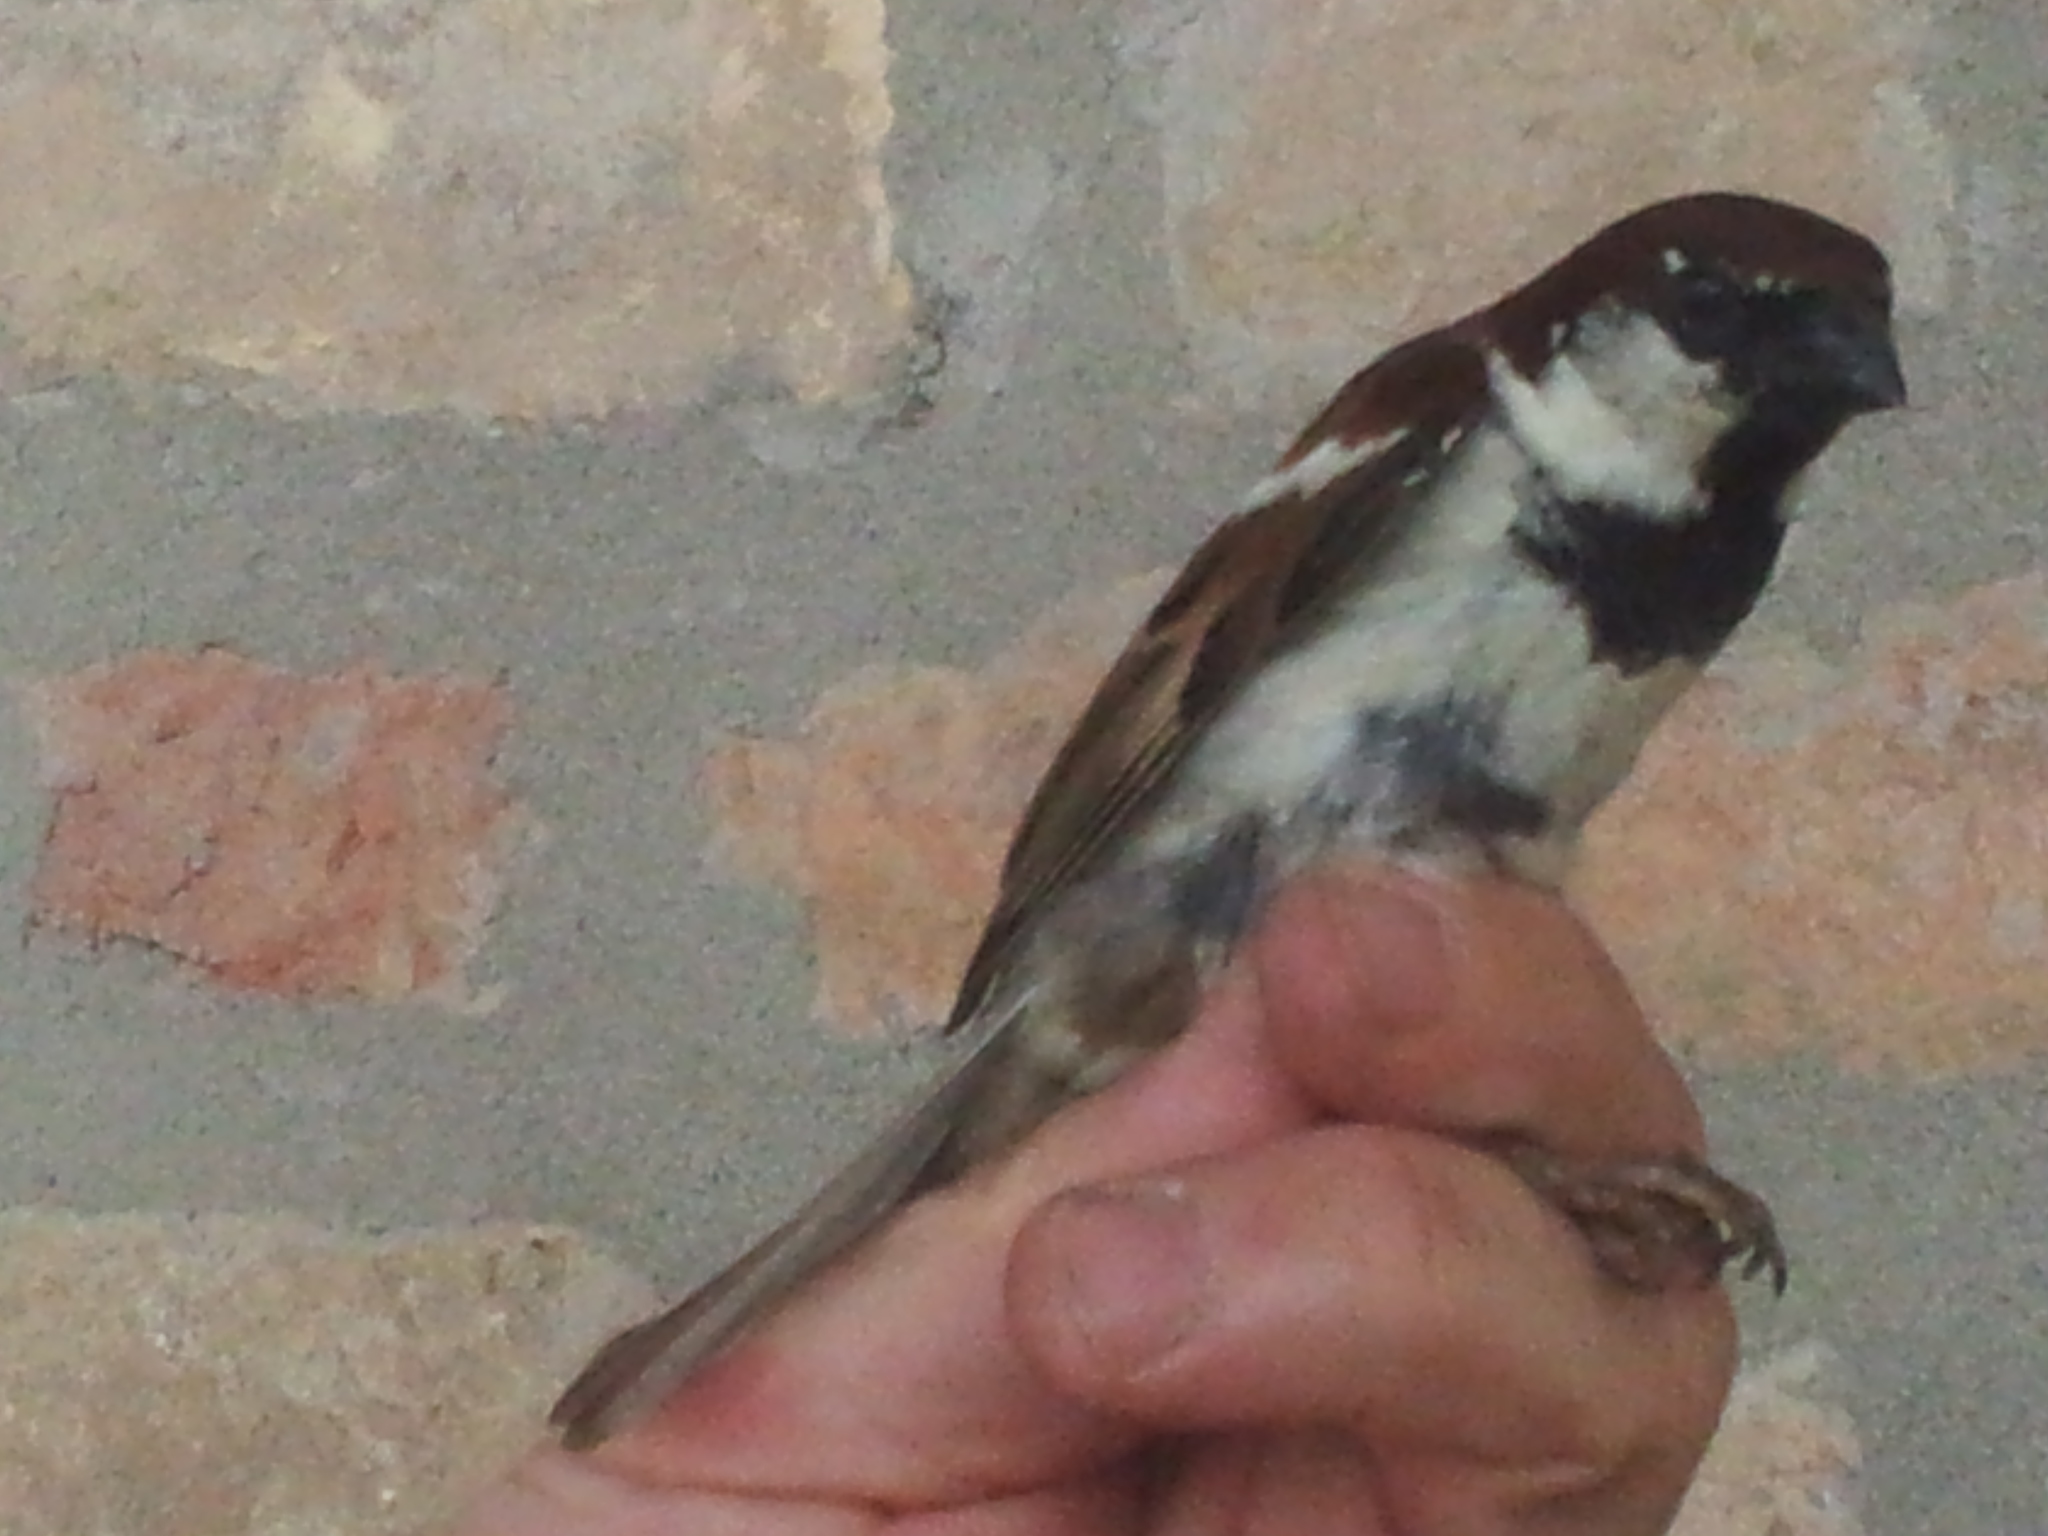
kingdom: Animalia
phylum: Chordata
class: Aves
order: Passeriformes
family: Passeridae
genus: Passer
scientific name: Passer italiae
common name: Italian sparrow
